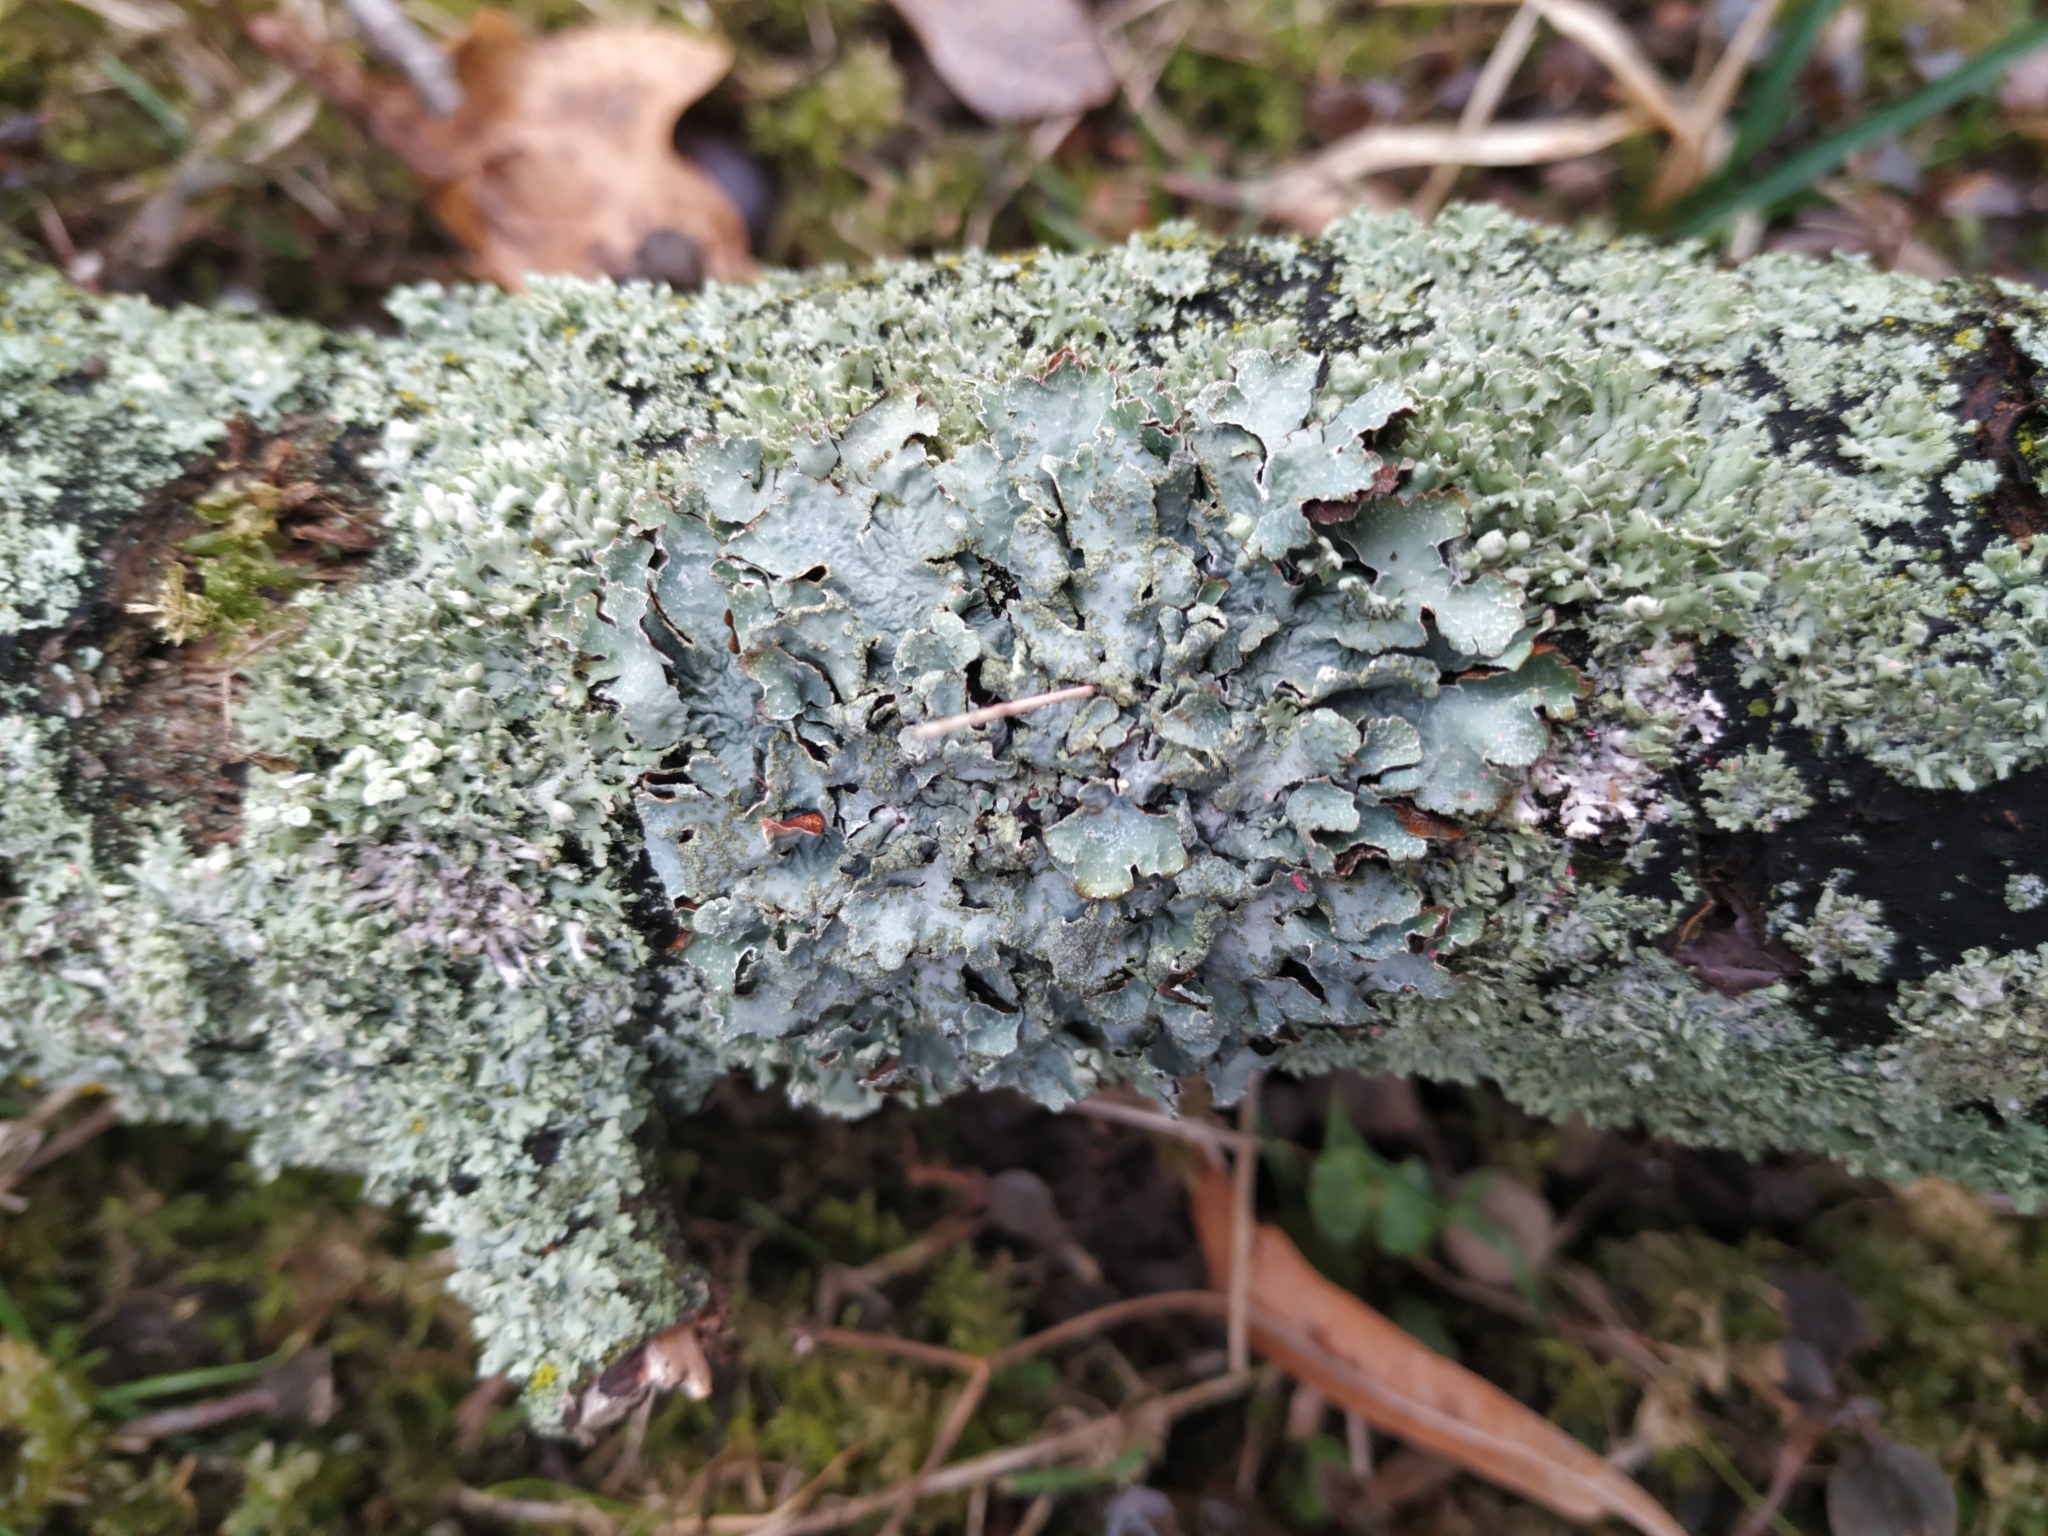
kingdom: Fungi
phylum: Ascomycota
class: Lecanoromycetes
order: Lecanorales
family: Parmeliaceae
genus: Parmelia
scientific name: Parmelia sulcata
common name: Netted shield lichen
